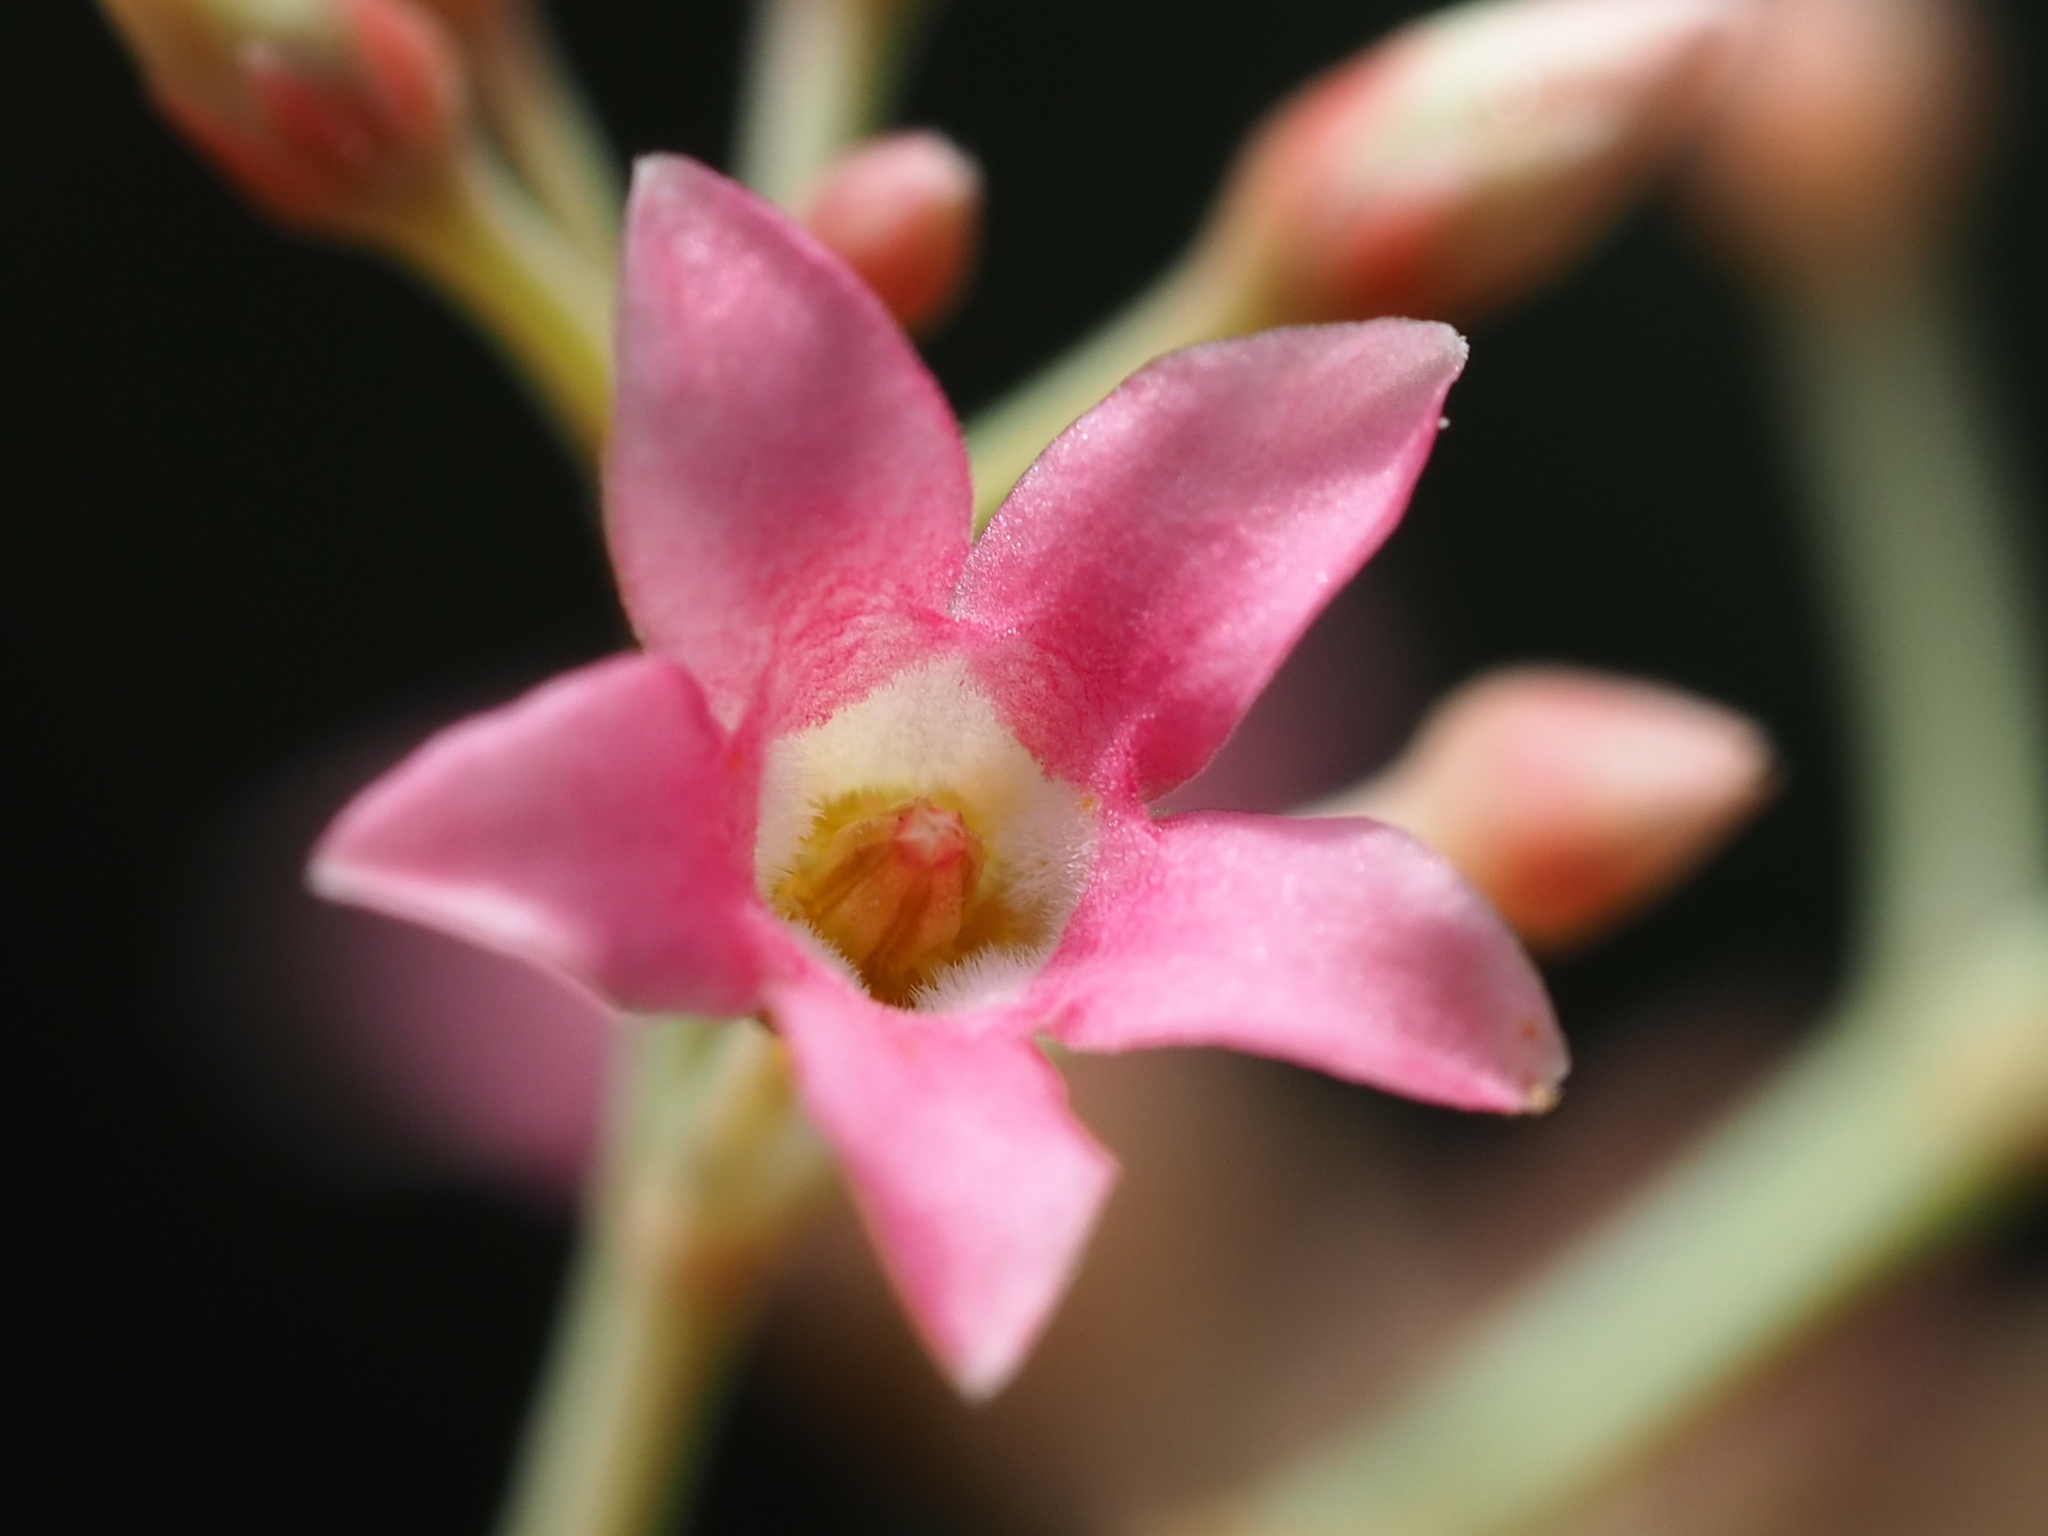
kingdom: Plantae
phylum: Tracheophyta
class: Magnoliopsida
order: Gentianales
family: Apocynaceae
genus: Urceola
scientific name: Urceola rosea
